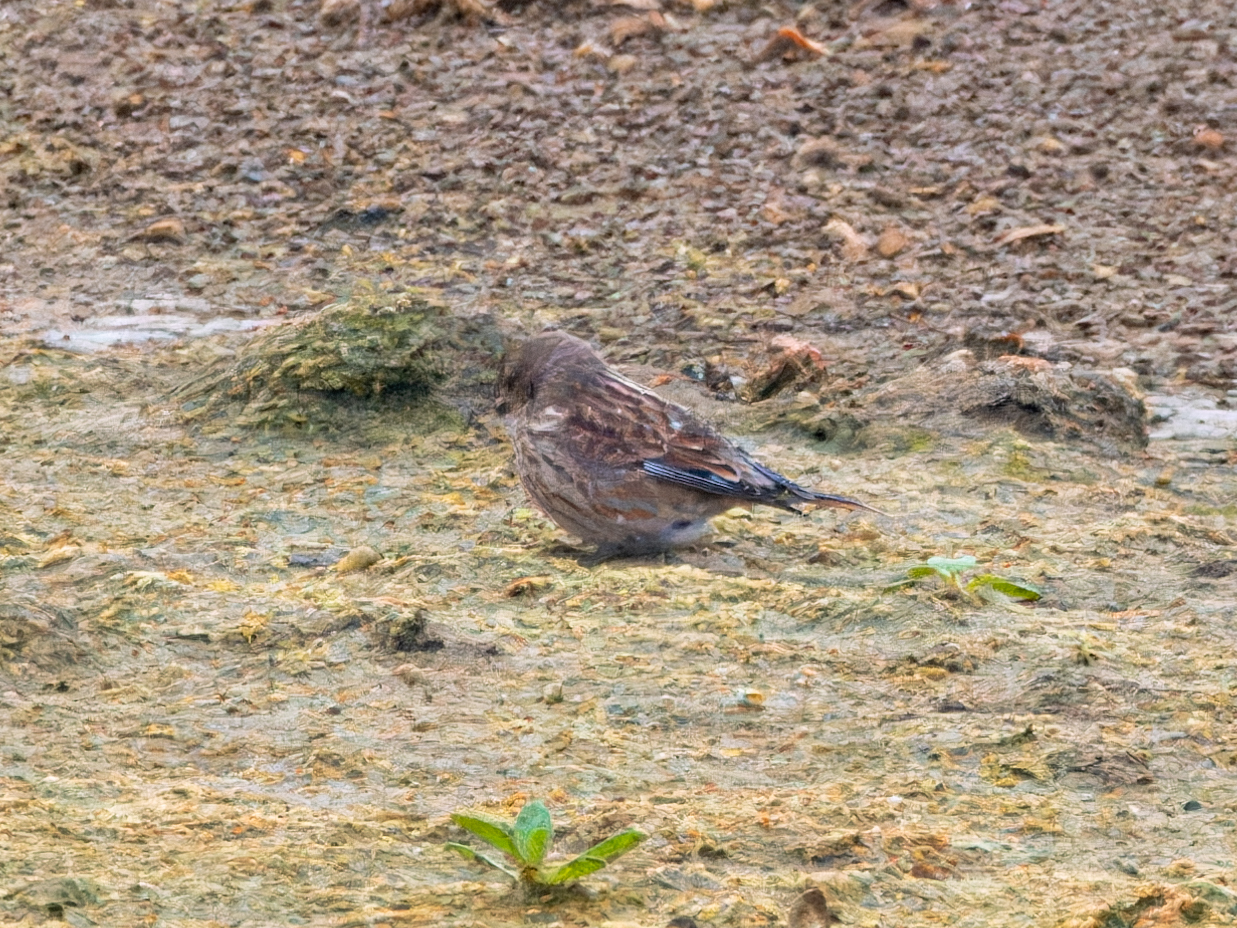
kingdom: Animalia
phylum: Chordata
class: Aves
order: Passeriformes
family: Fringillidae
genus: Linaria
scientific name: Linaria cannabina
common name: Common linnet
